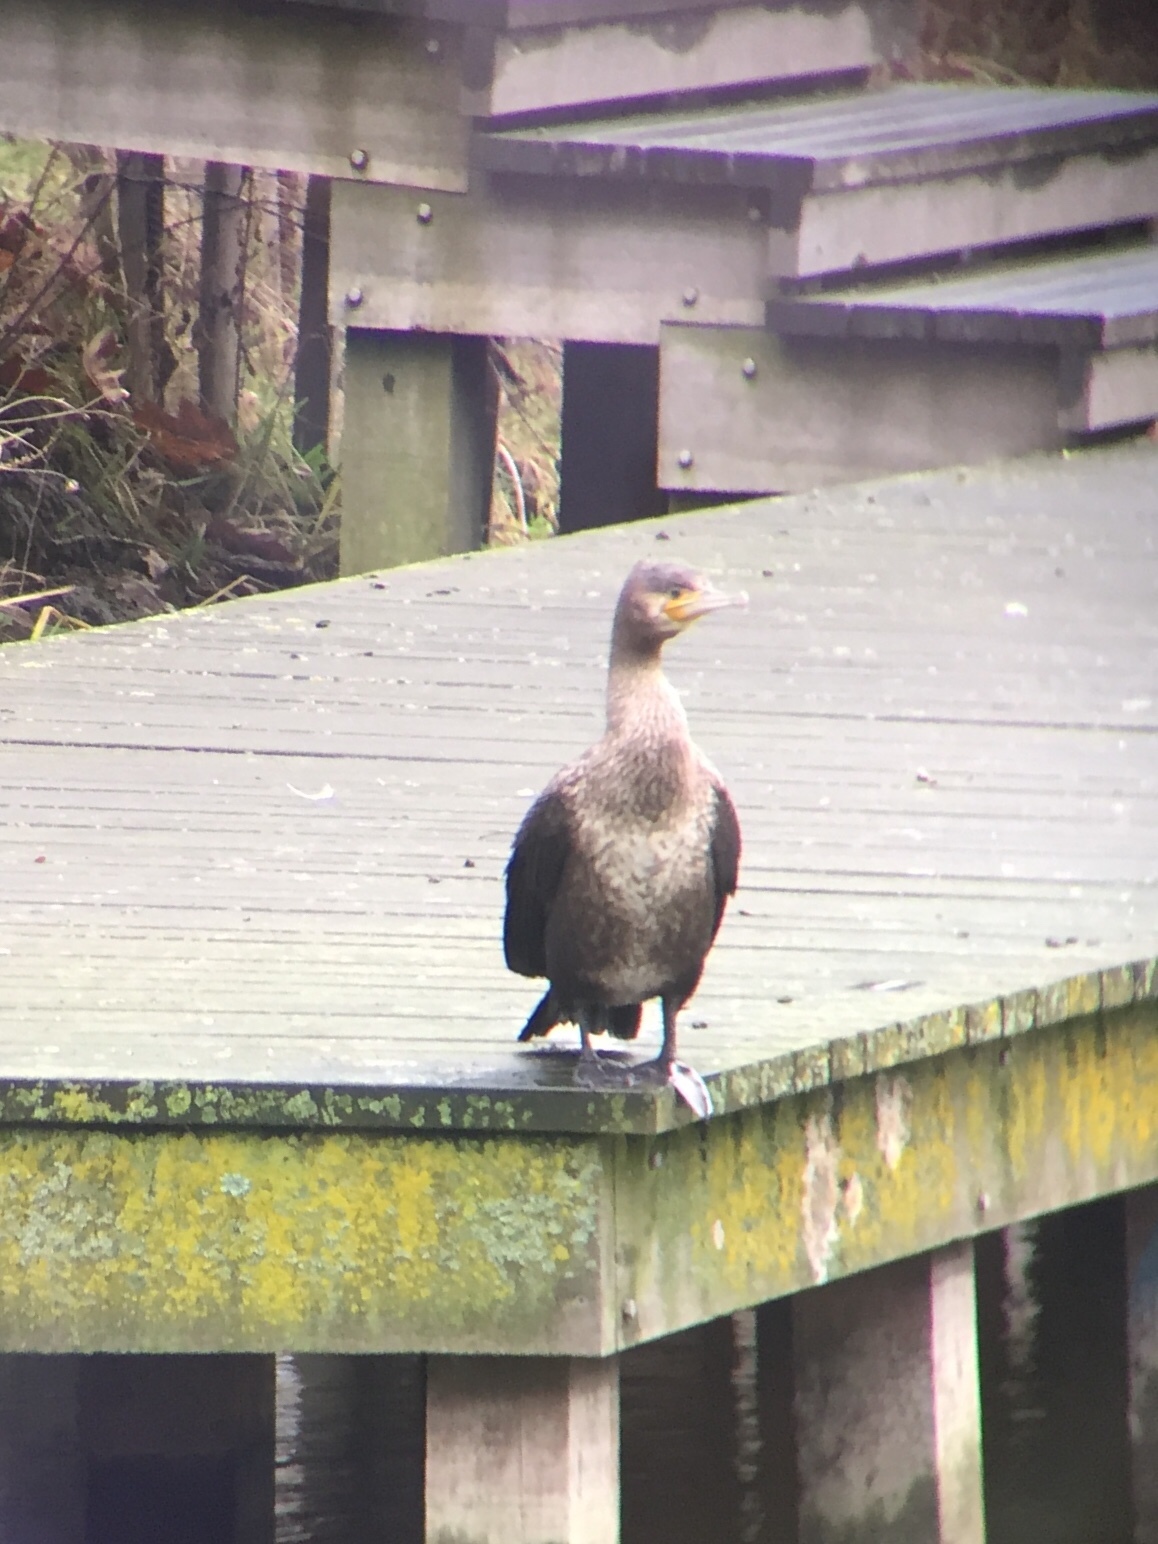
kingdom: Animalia
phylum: Chordata
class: Aves
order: Suliformes
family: Phalacrocoracidae
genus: Phalacrocorax
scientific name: Phalacrocorax carbo
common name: Great cormorant
